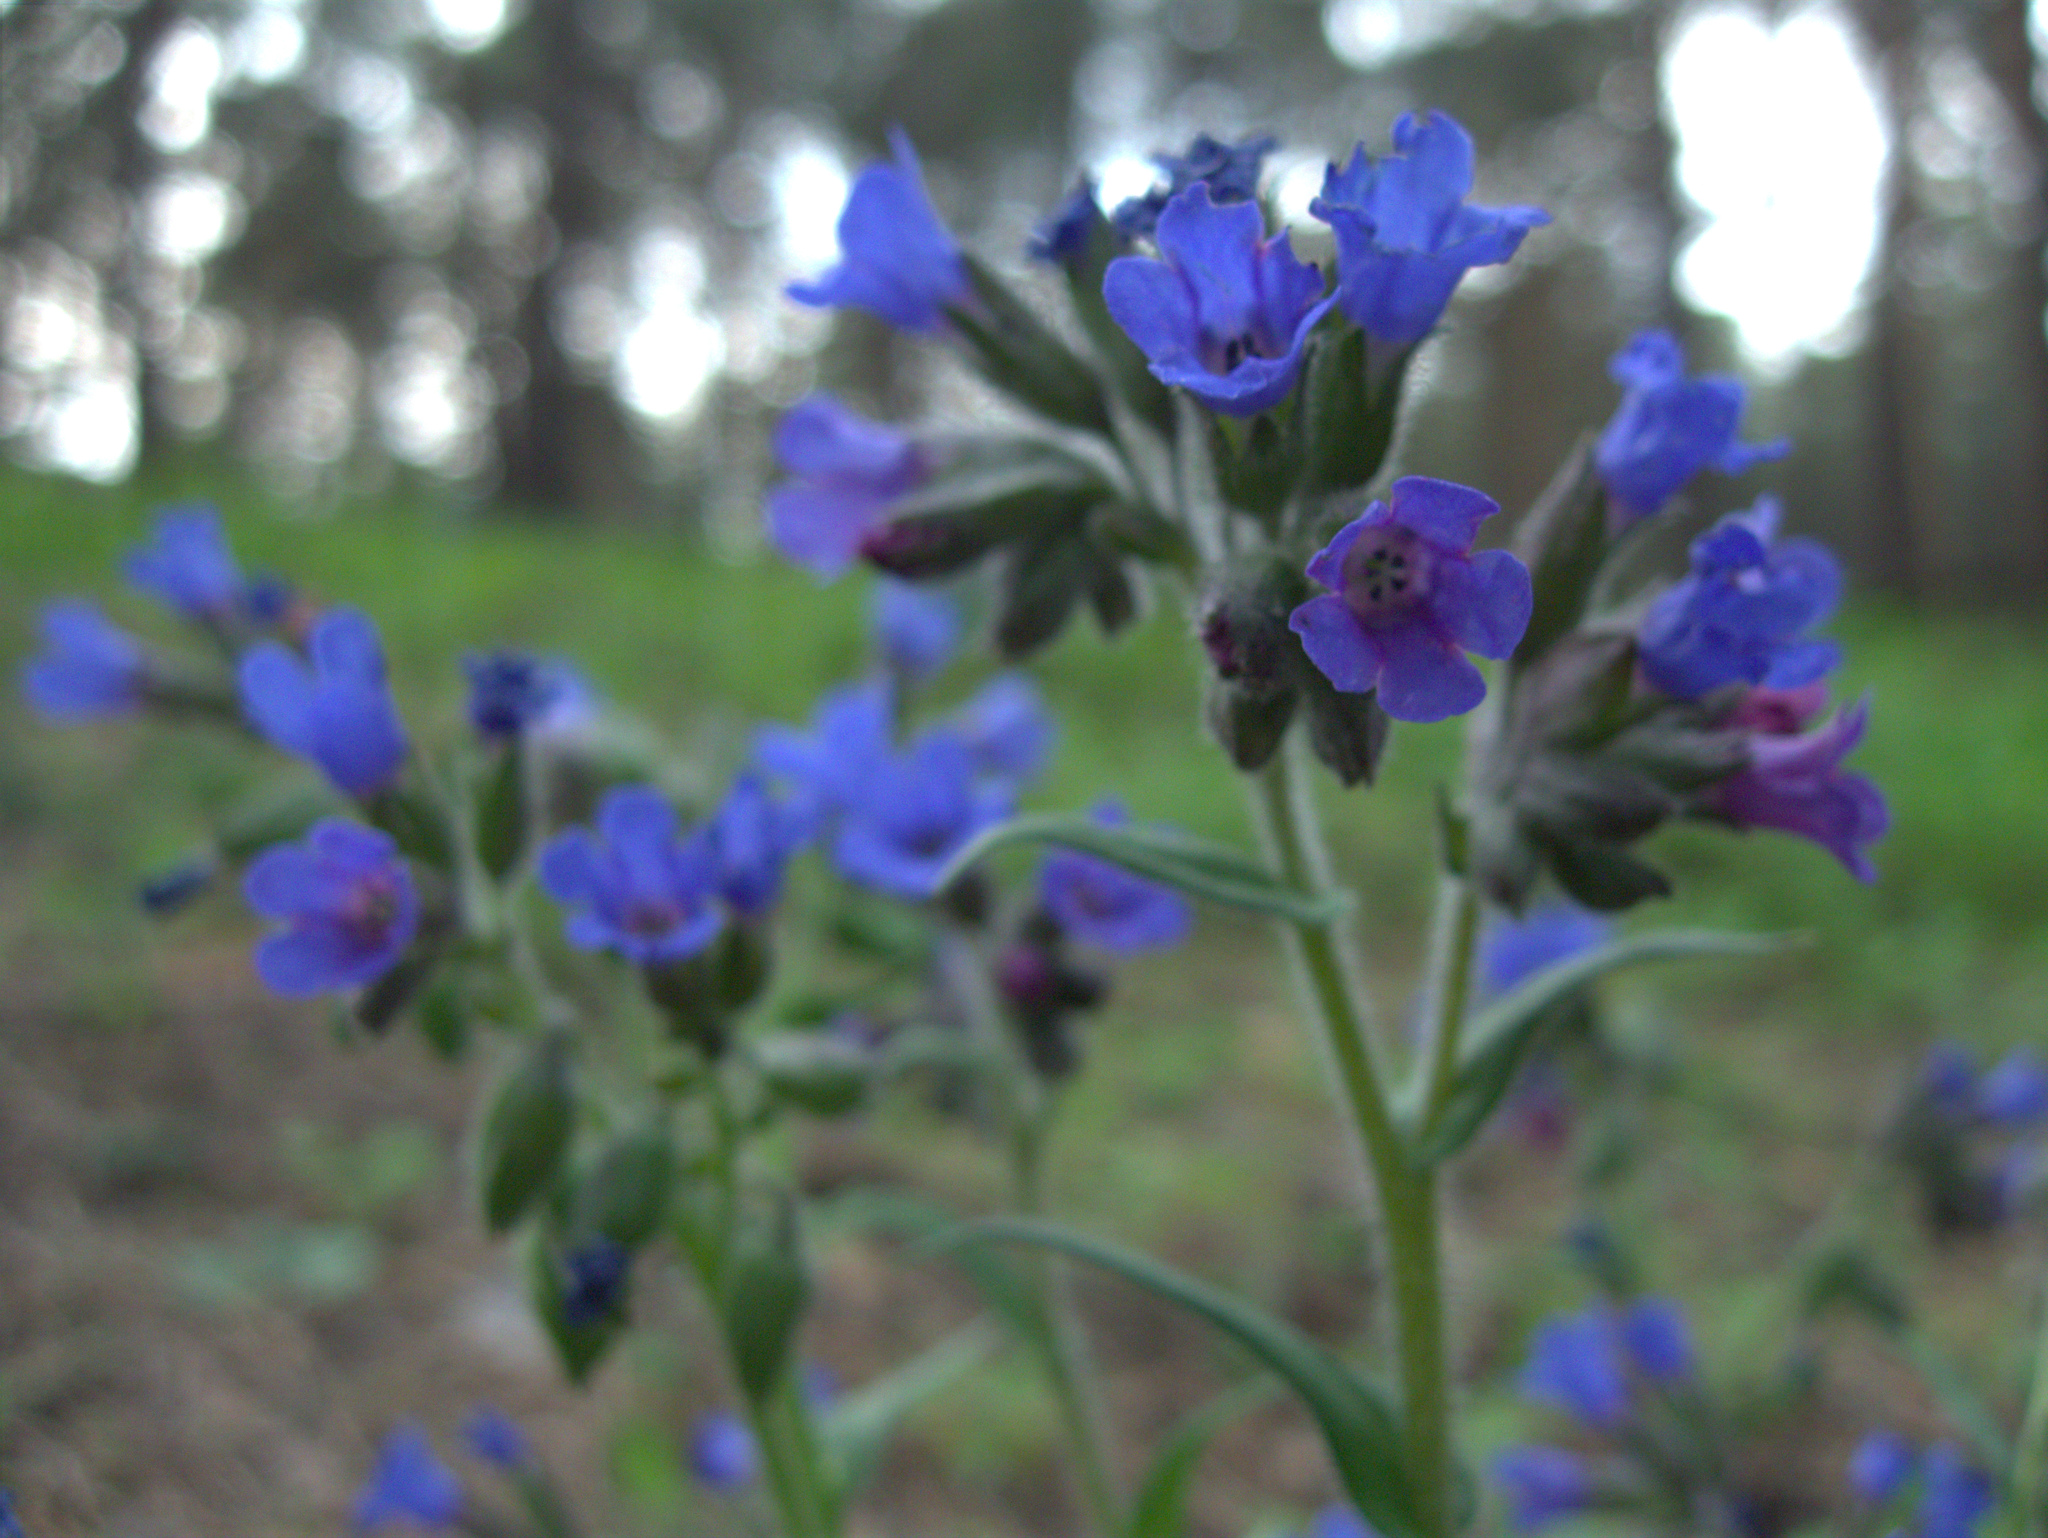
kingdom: Plantae
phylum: Tracheophyta
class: Magnoliopsida
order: Boraginales
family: Boraginaceae
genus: Pulmonaria
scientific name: Pulmonaria angustifolia
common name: Blue cowslip
